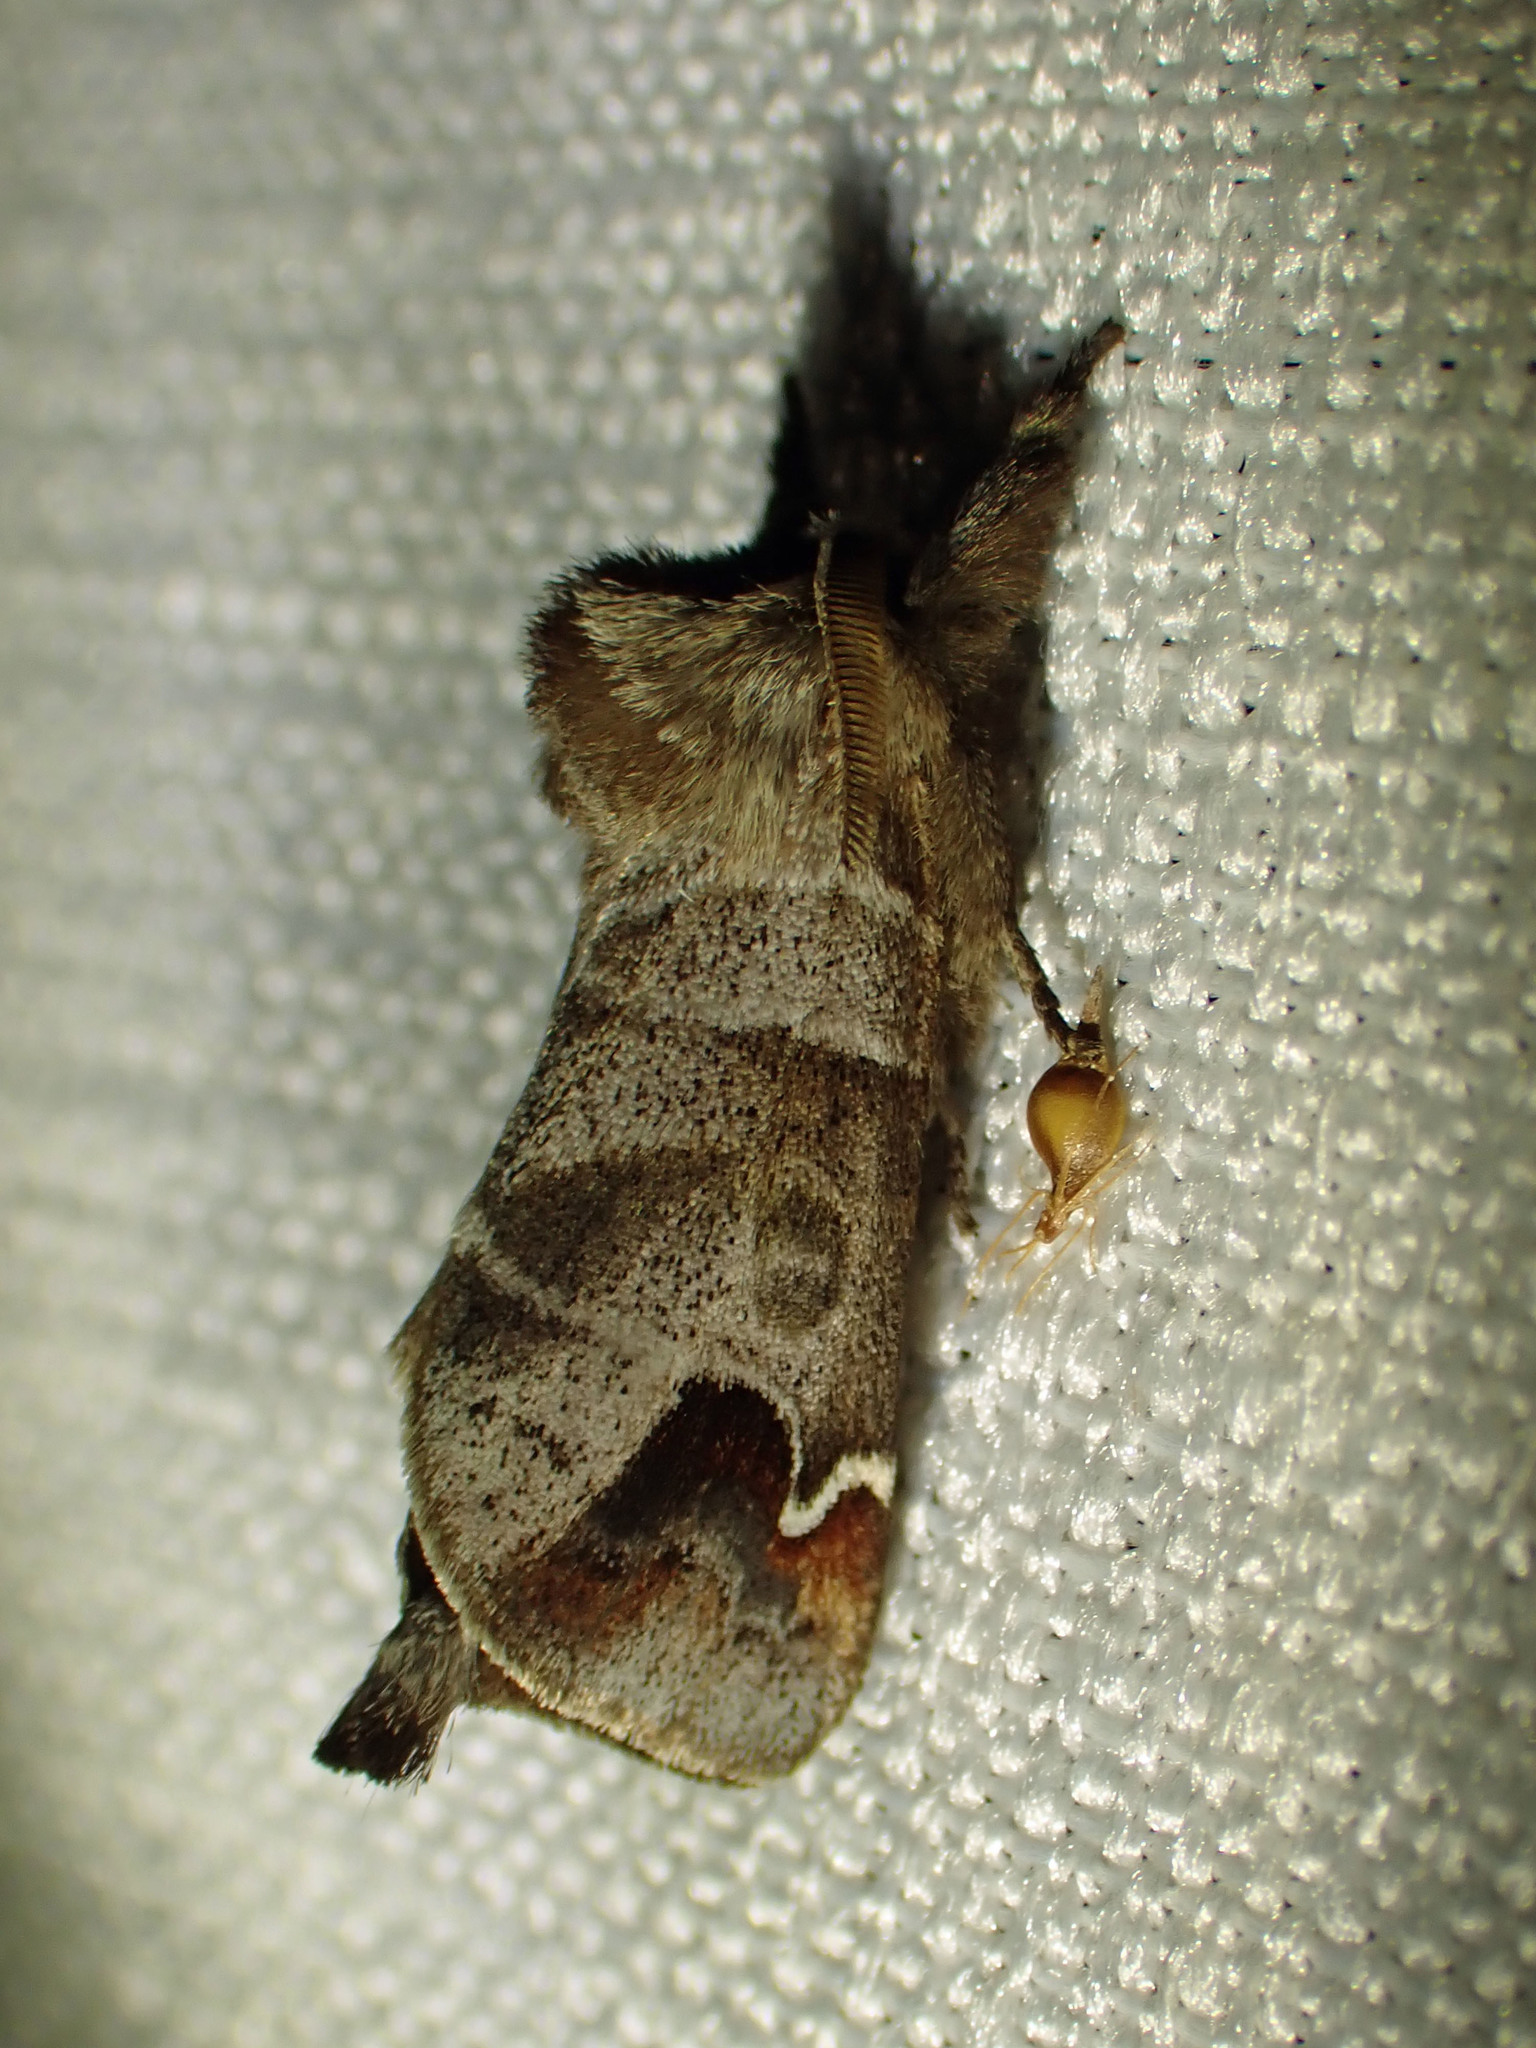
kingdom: Animalia
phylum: Arthropoda
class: Insecta
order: Lepidoptera
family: Notodontidae
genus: Clostera
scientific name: Clostera albosigma
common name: Sigmoid prominent
